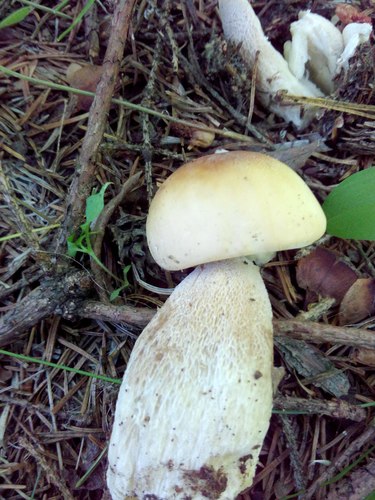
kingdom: Fungi
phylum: Basidiomycota
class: Agaricomycetes
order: Boletales
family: Boletaceae
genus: Boletus
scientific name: Boletus edulis
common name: Cep
